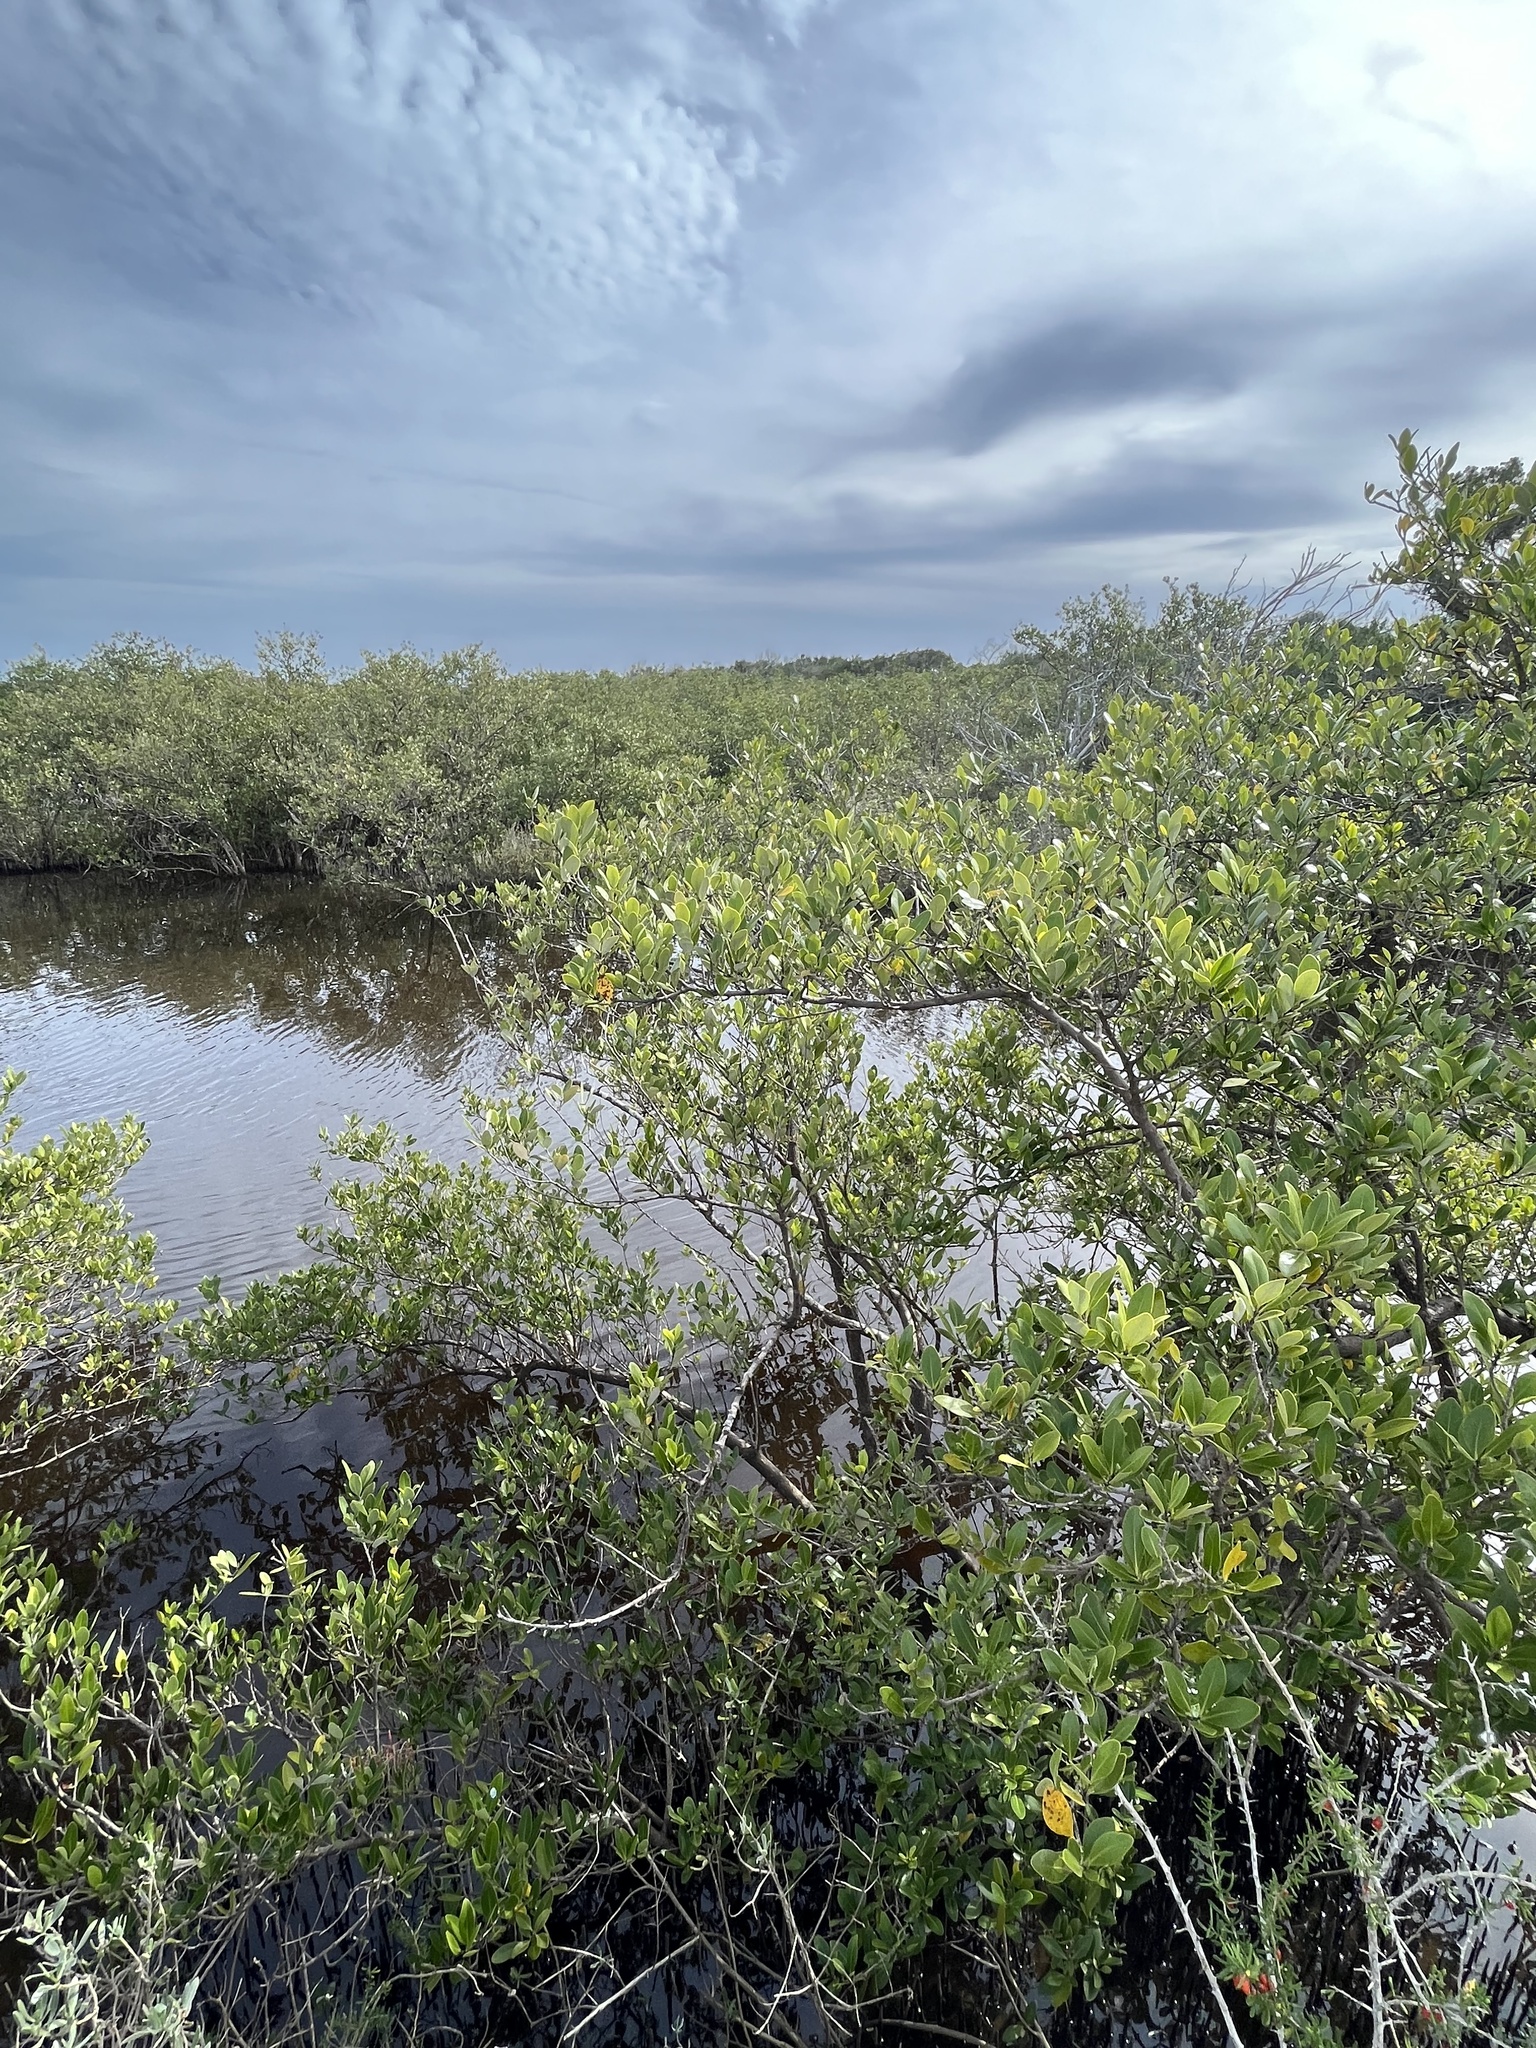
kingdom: Plantae
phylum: Tracheophyta
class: Magnoliopsida
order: Lamiales
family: Acanthaceae
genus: Avicennia
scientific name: Avicennia germinans
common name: Black mangrove
